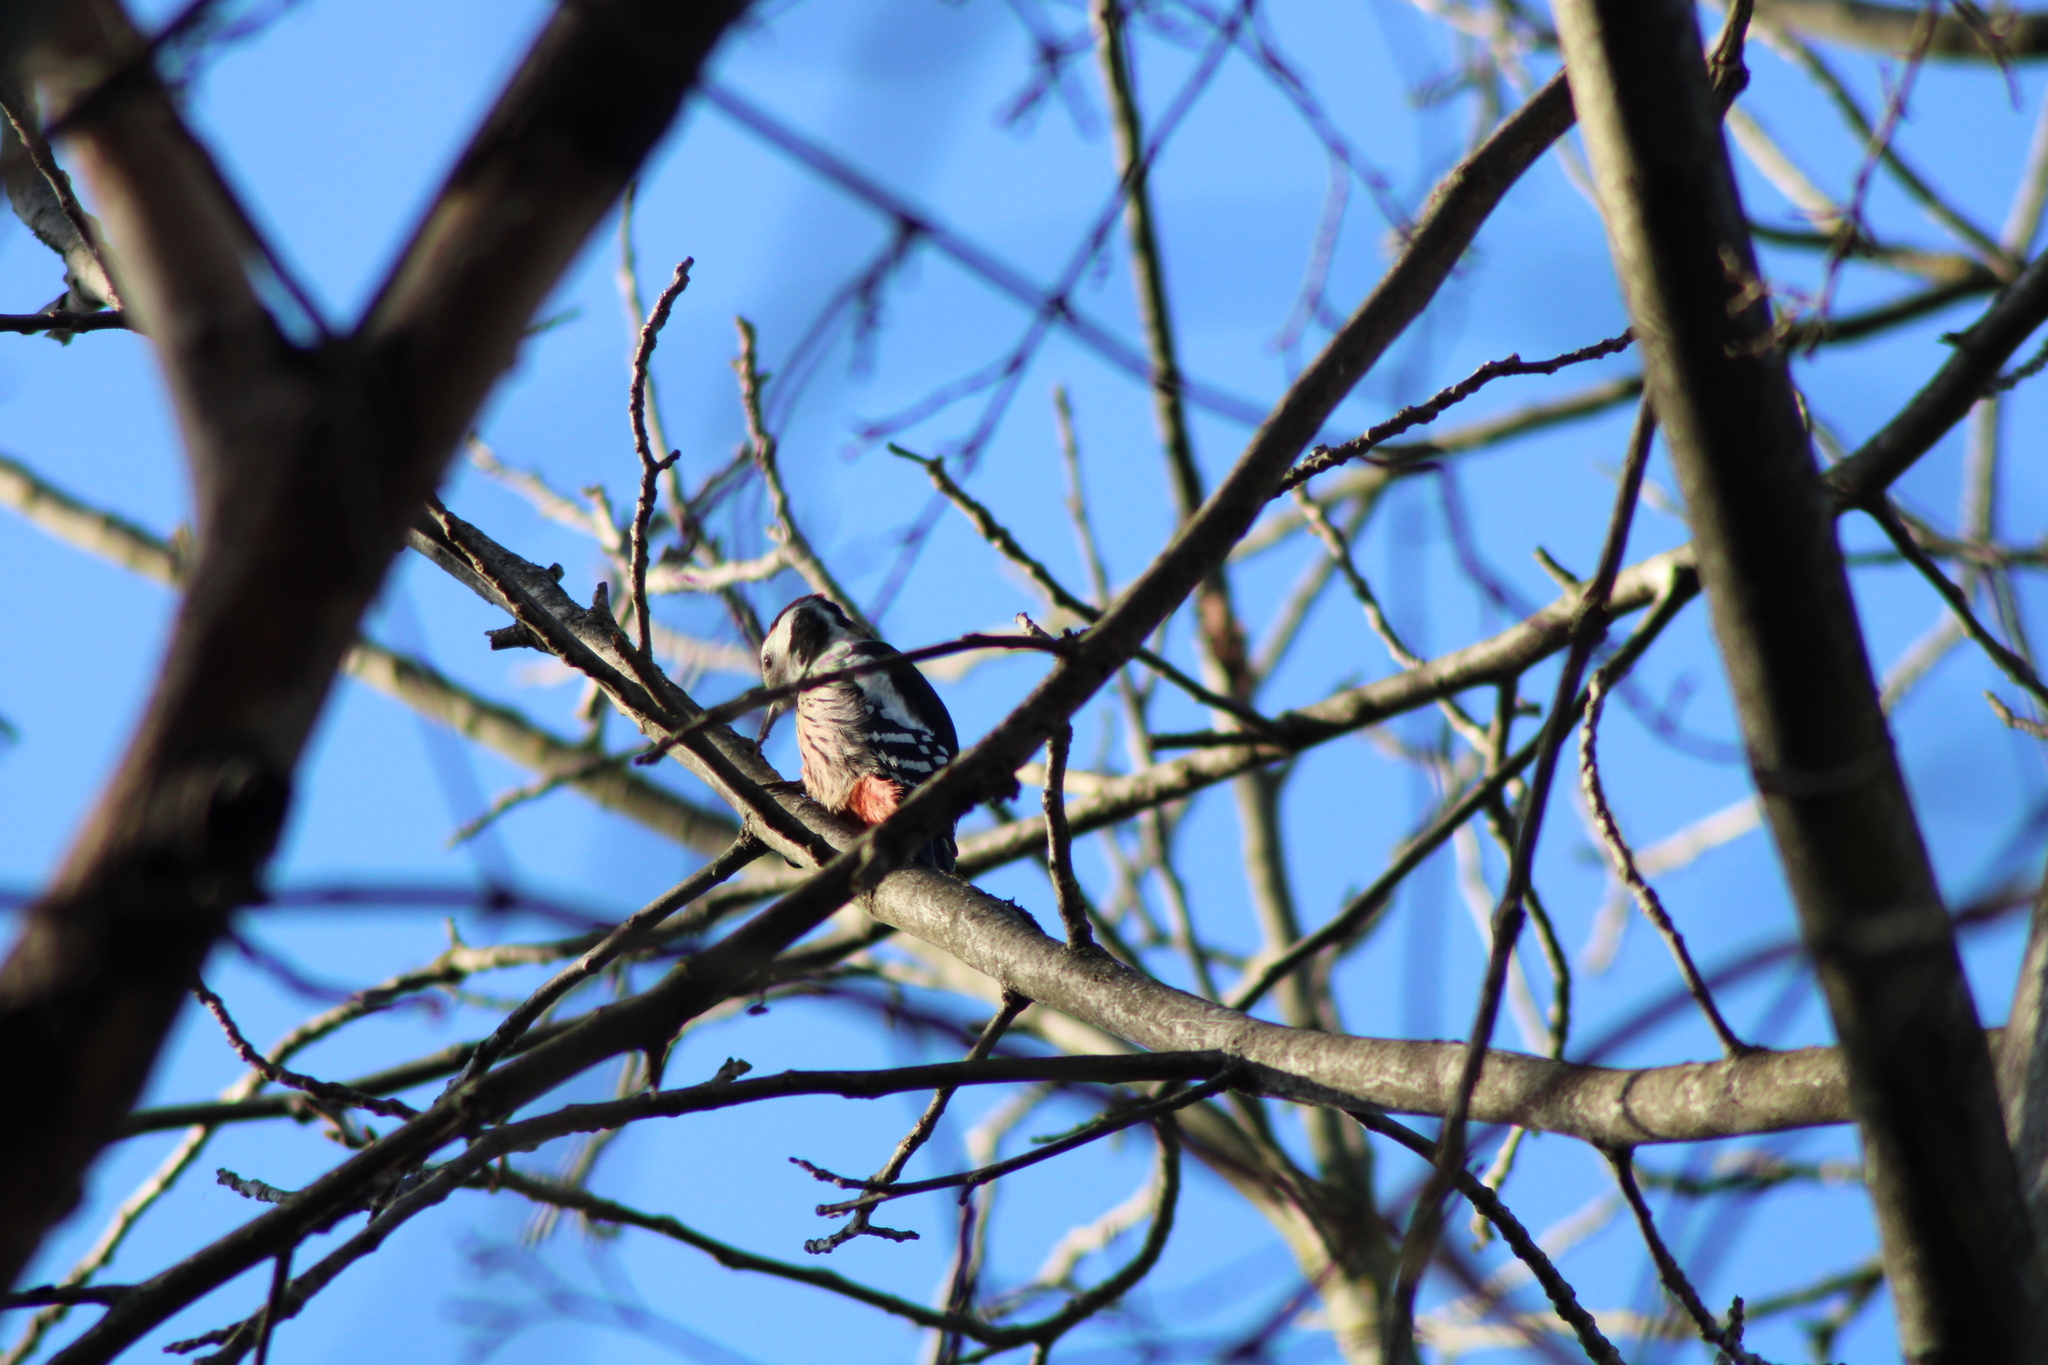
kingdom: Animalia
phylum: Chordata
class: Aves
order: Piciformes
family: Picidae
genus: Dendrocoptes
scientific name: Dendrocoptes medius
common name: Middle spotted woodpecker
